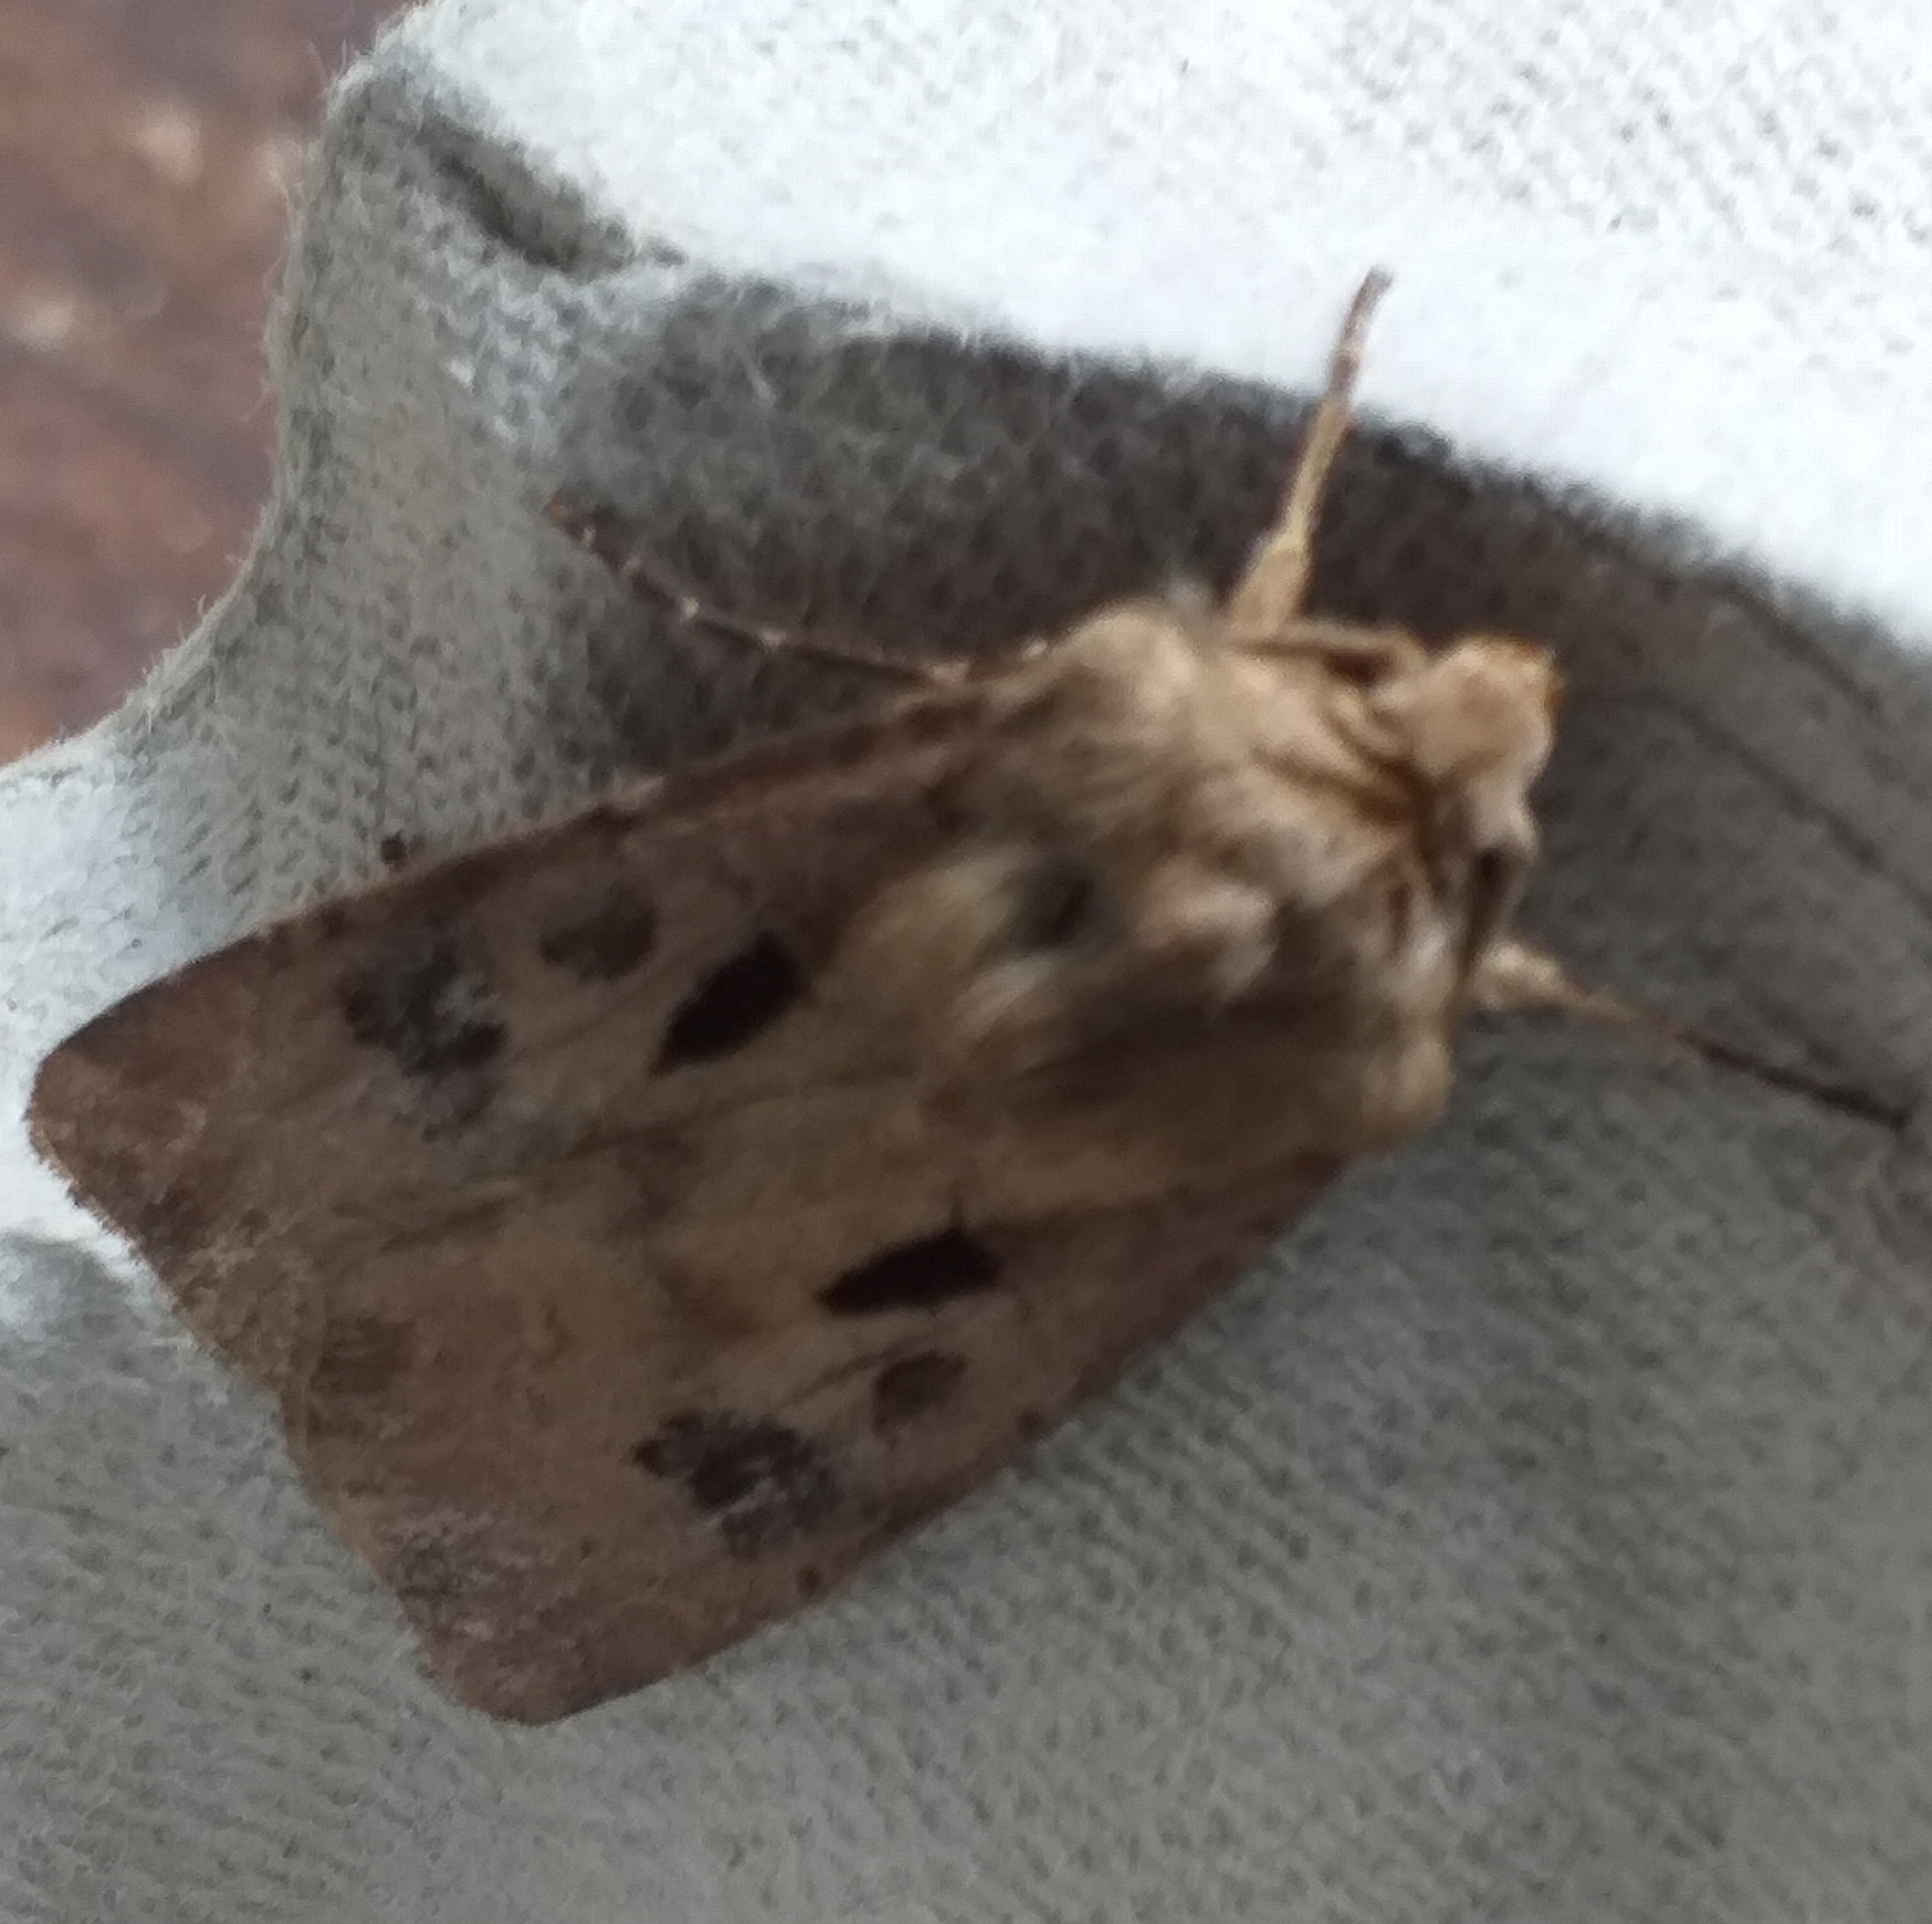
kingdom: Animalia
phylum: Arthropoda
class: Insecta
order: Lepidoptera
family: Noctuidae
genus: Agrotis
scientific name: Agrotis exclamationis
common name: Heart and dart
